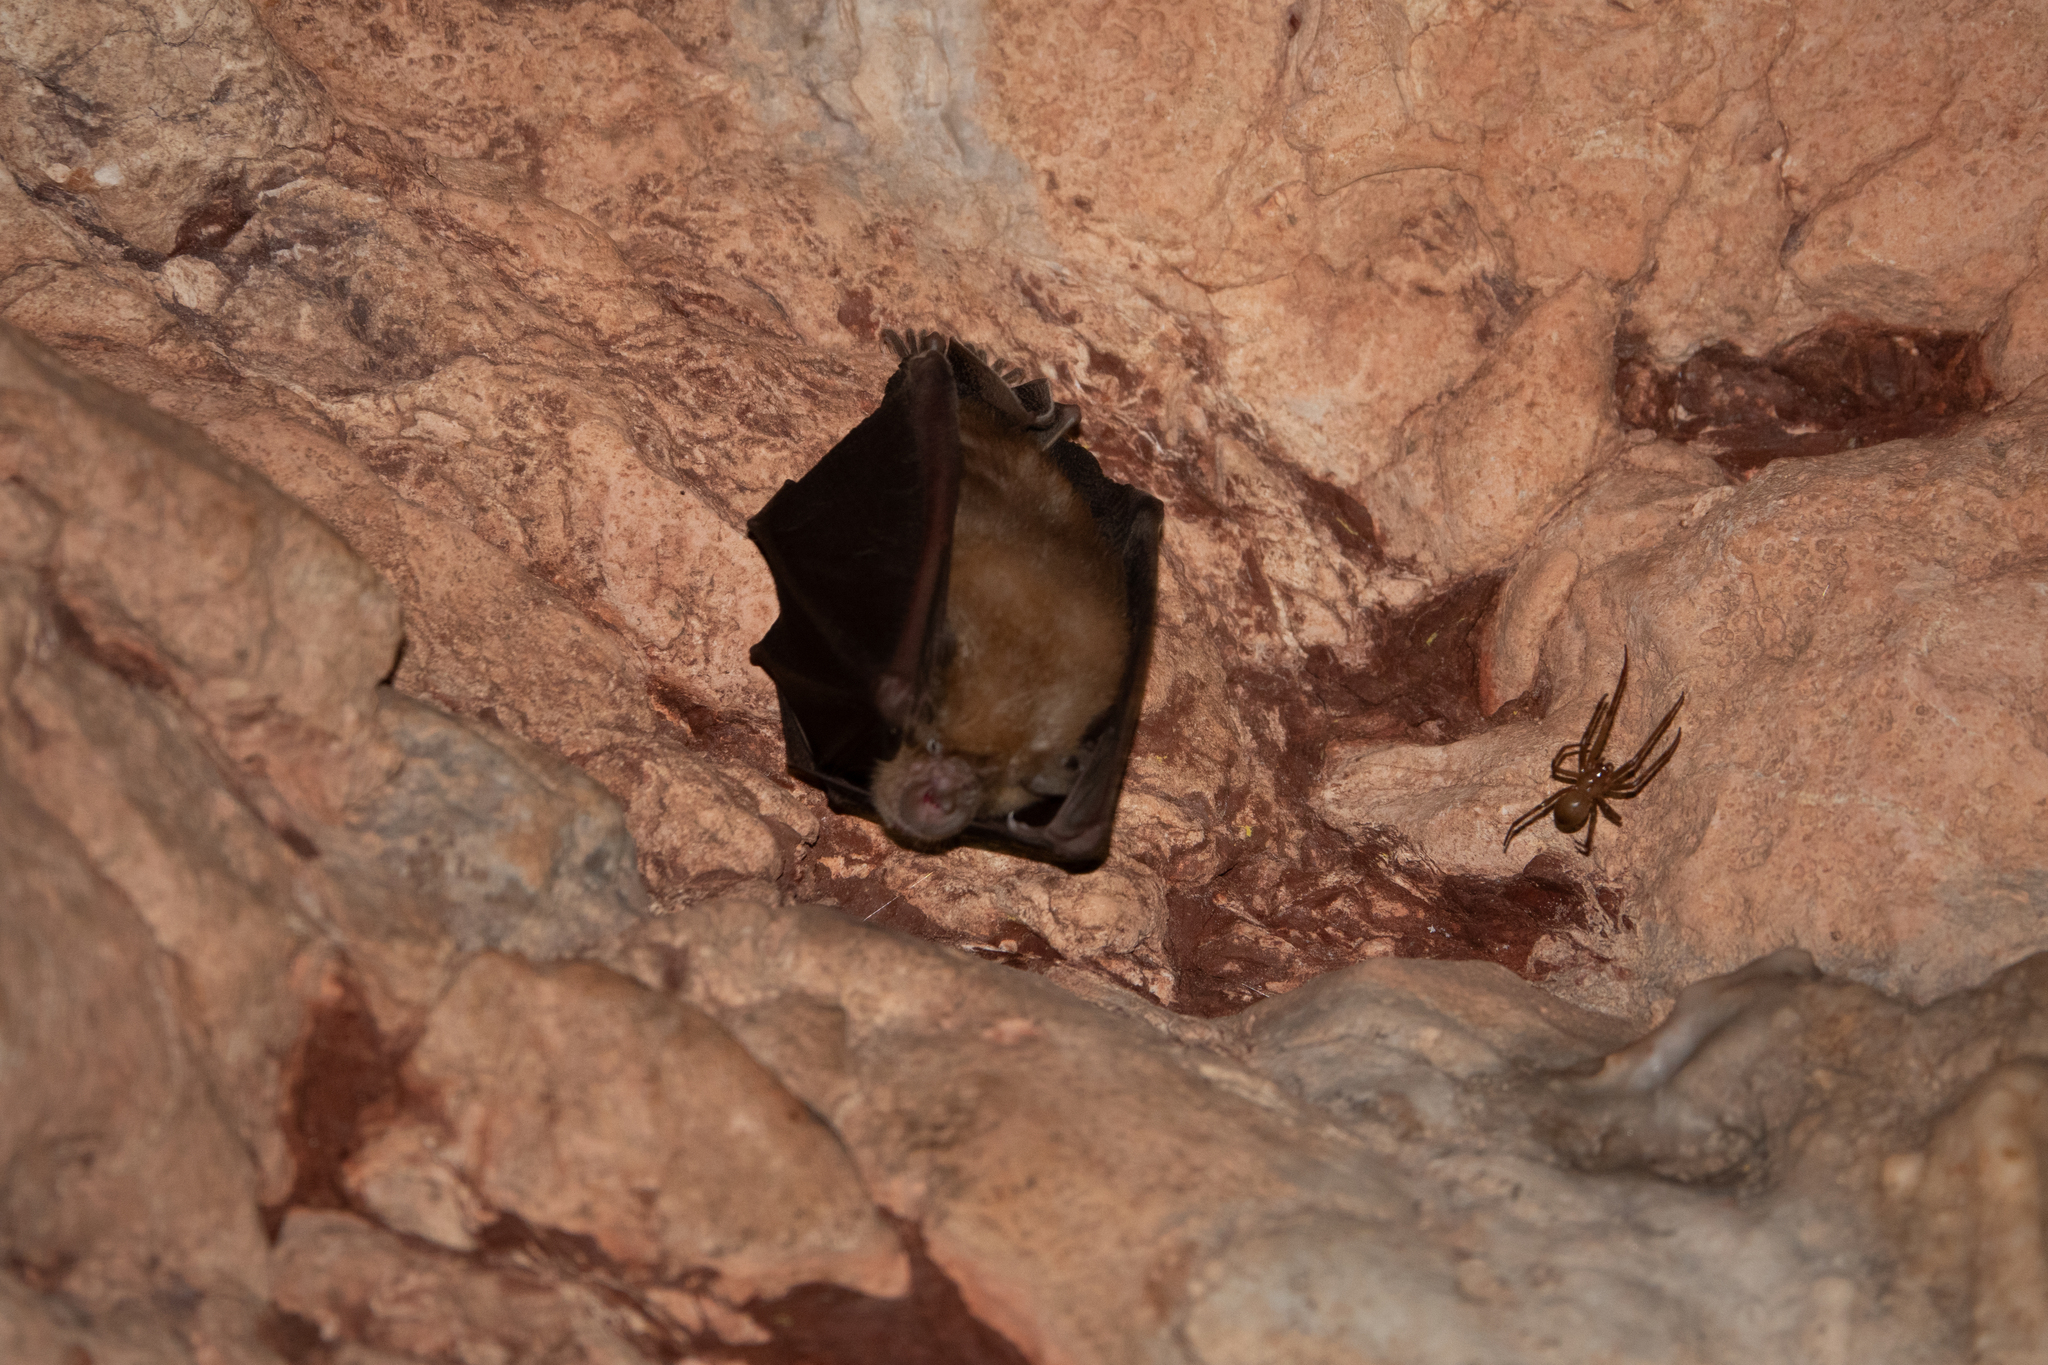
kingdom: Animalia
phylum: Chordata
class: Mammalia
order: Chiroptera
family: Rhinolophidae
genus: Rhinolophus
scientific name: Rhinolophus ferrumequinum
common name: Greater horseshoe bat
